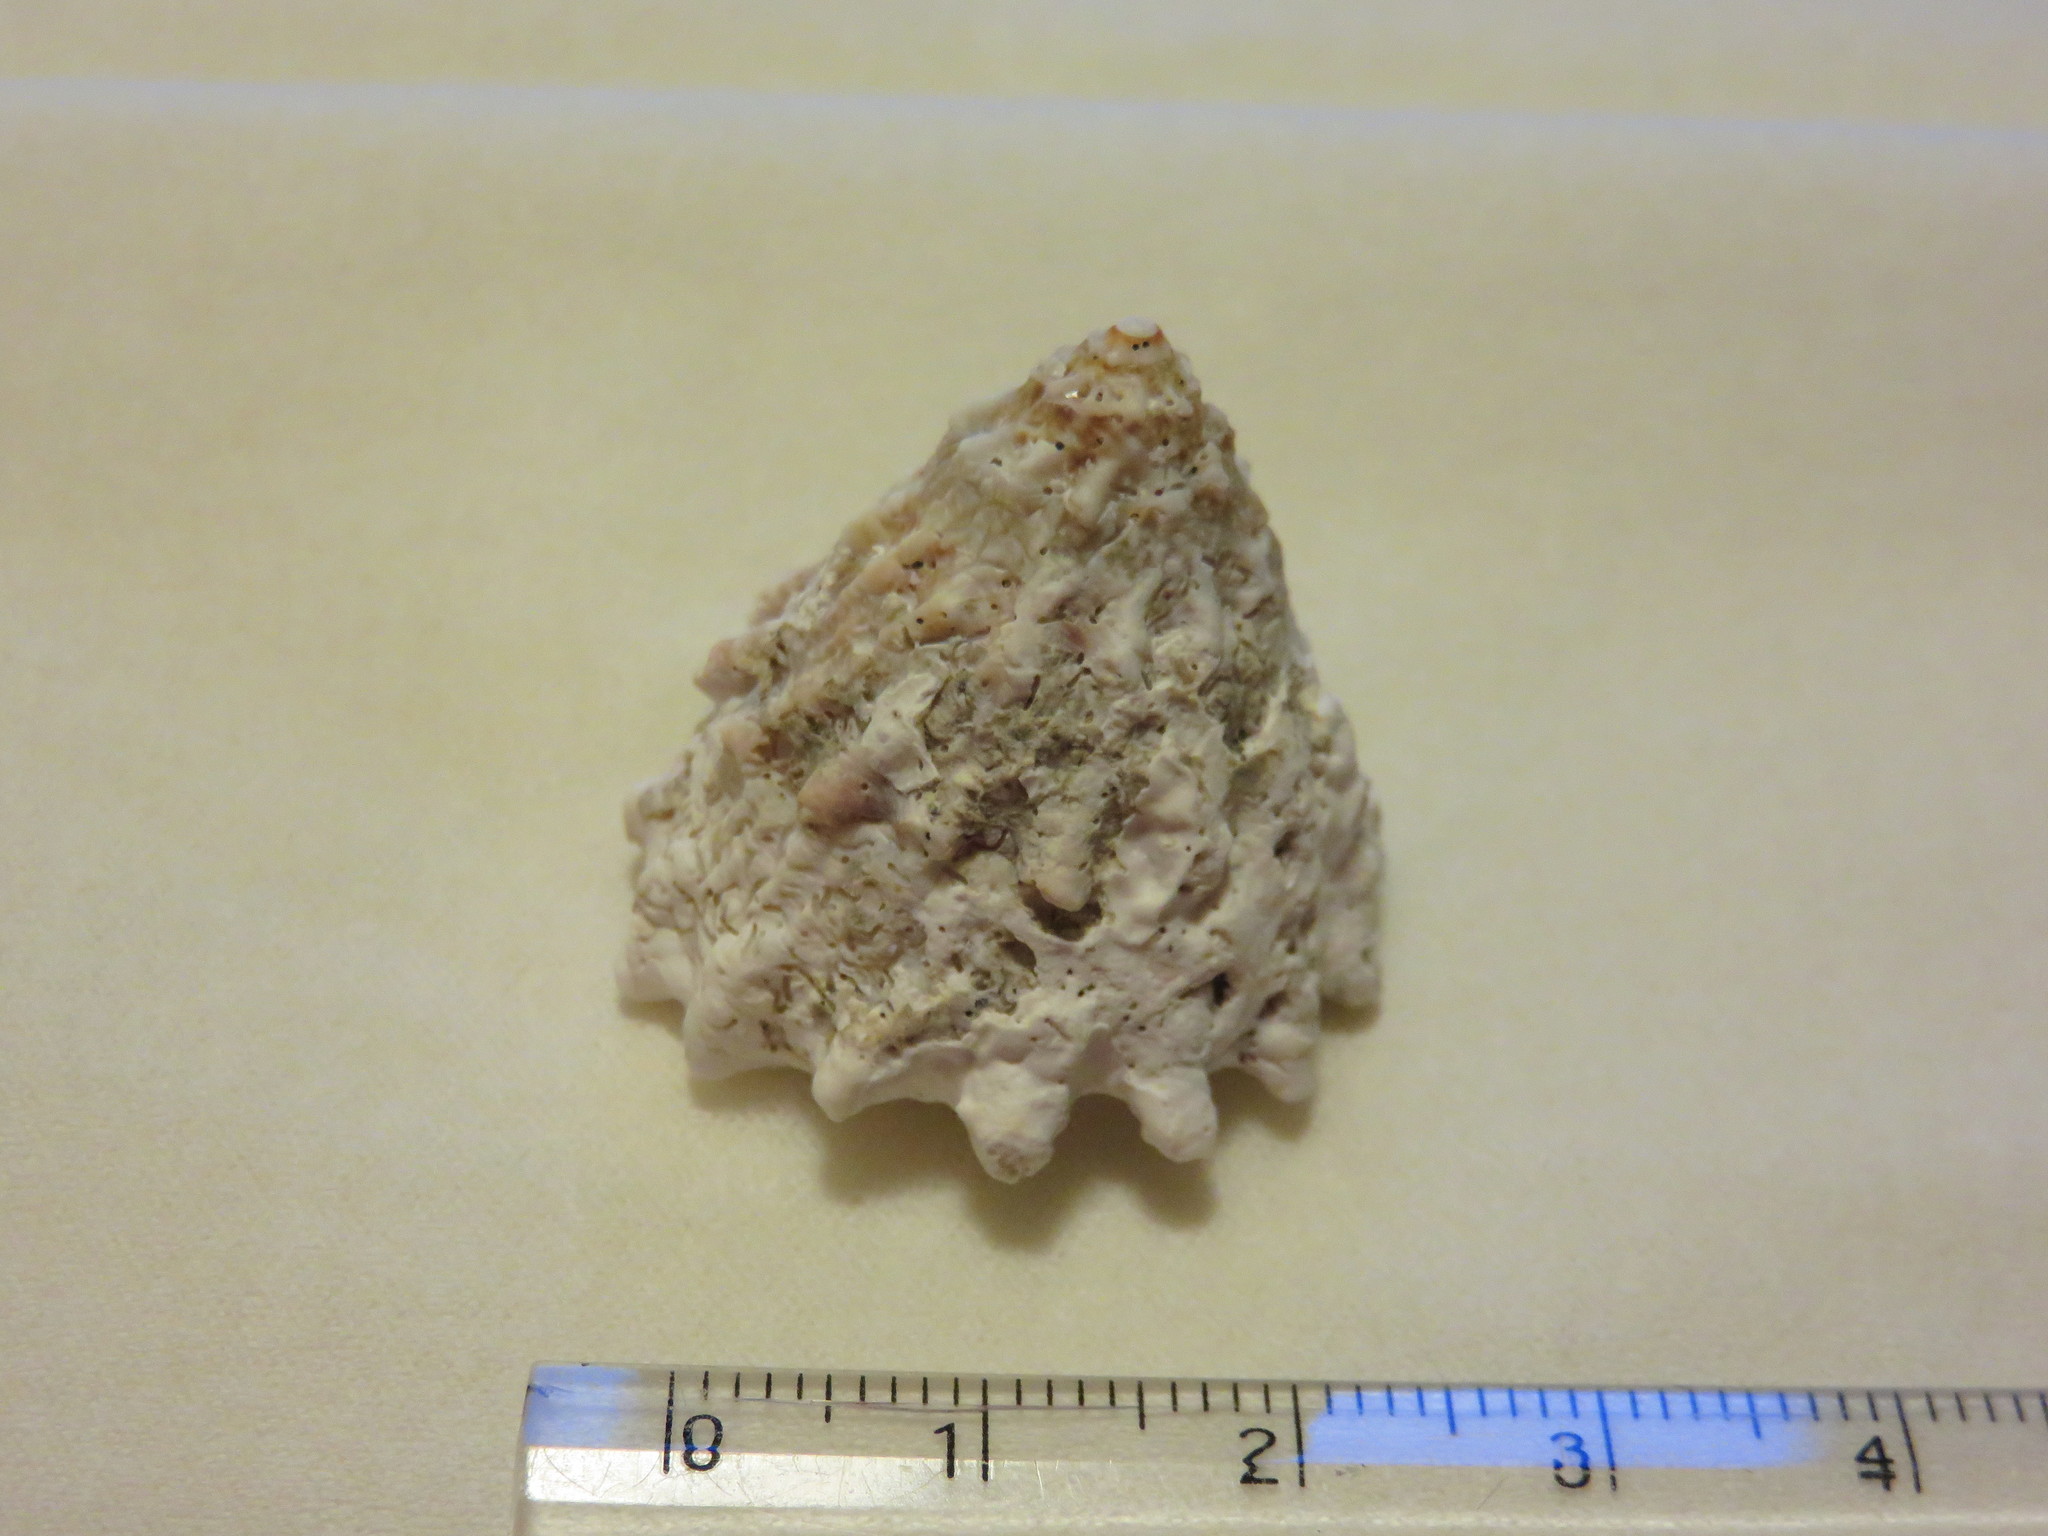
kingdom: Animalia
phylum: Mollusca
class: Gastropoda
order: Trochida
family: Turbinidae
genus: Astralium
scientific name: Astralium haematragum
